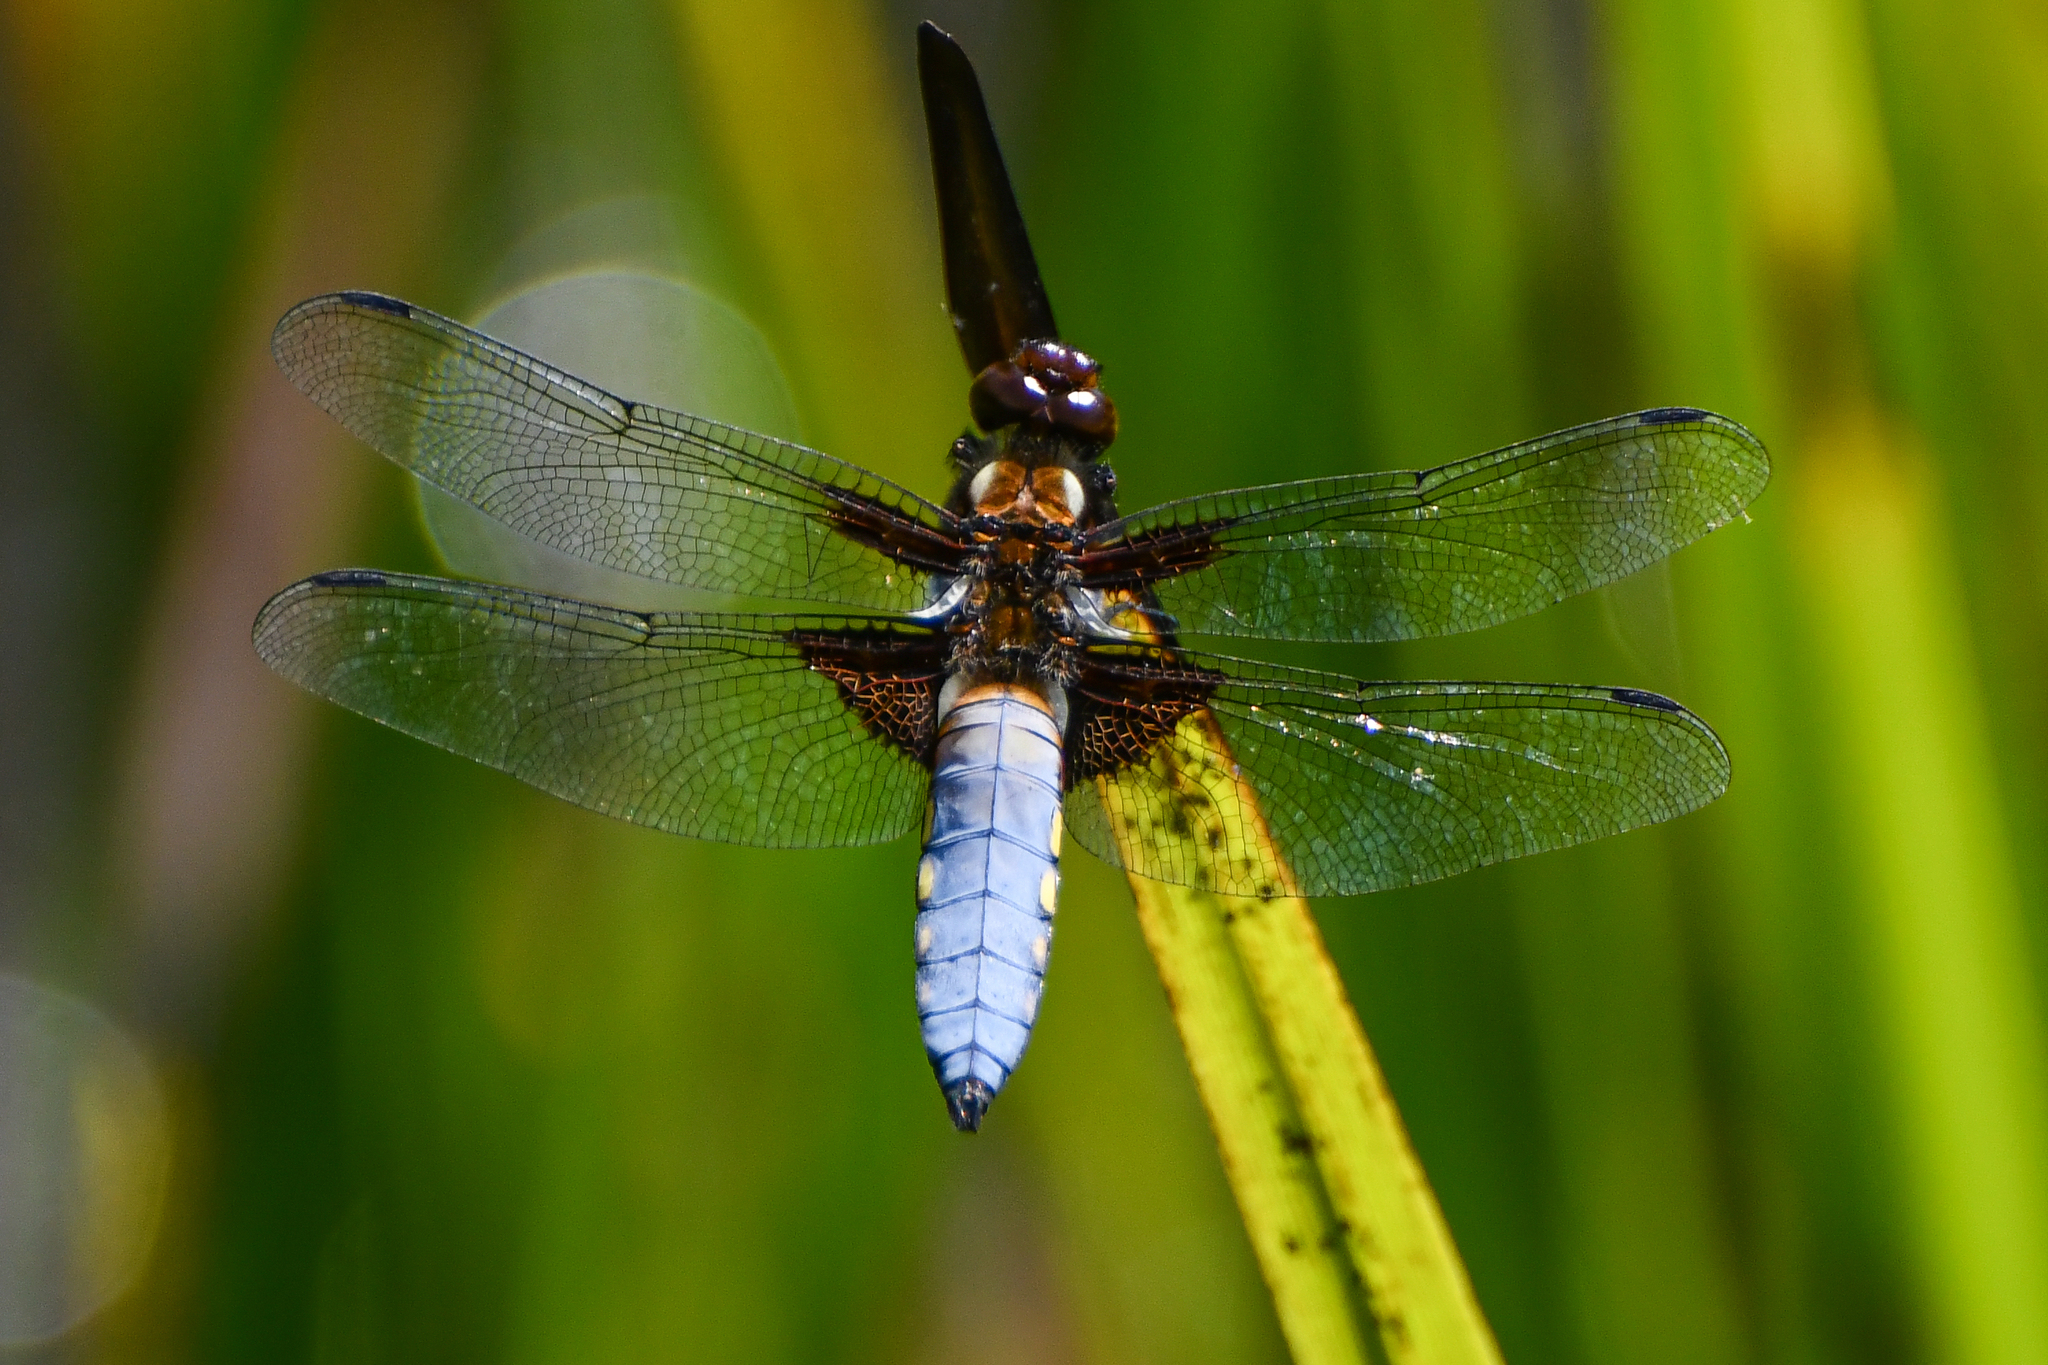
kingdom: Animalia
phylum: Arthropoda
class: Insecta
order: Odonata
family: Libellulidae
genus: Libellula
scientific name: Libellula depressa
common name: Broad-bodied chaser
